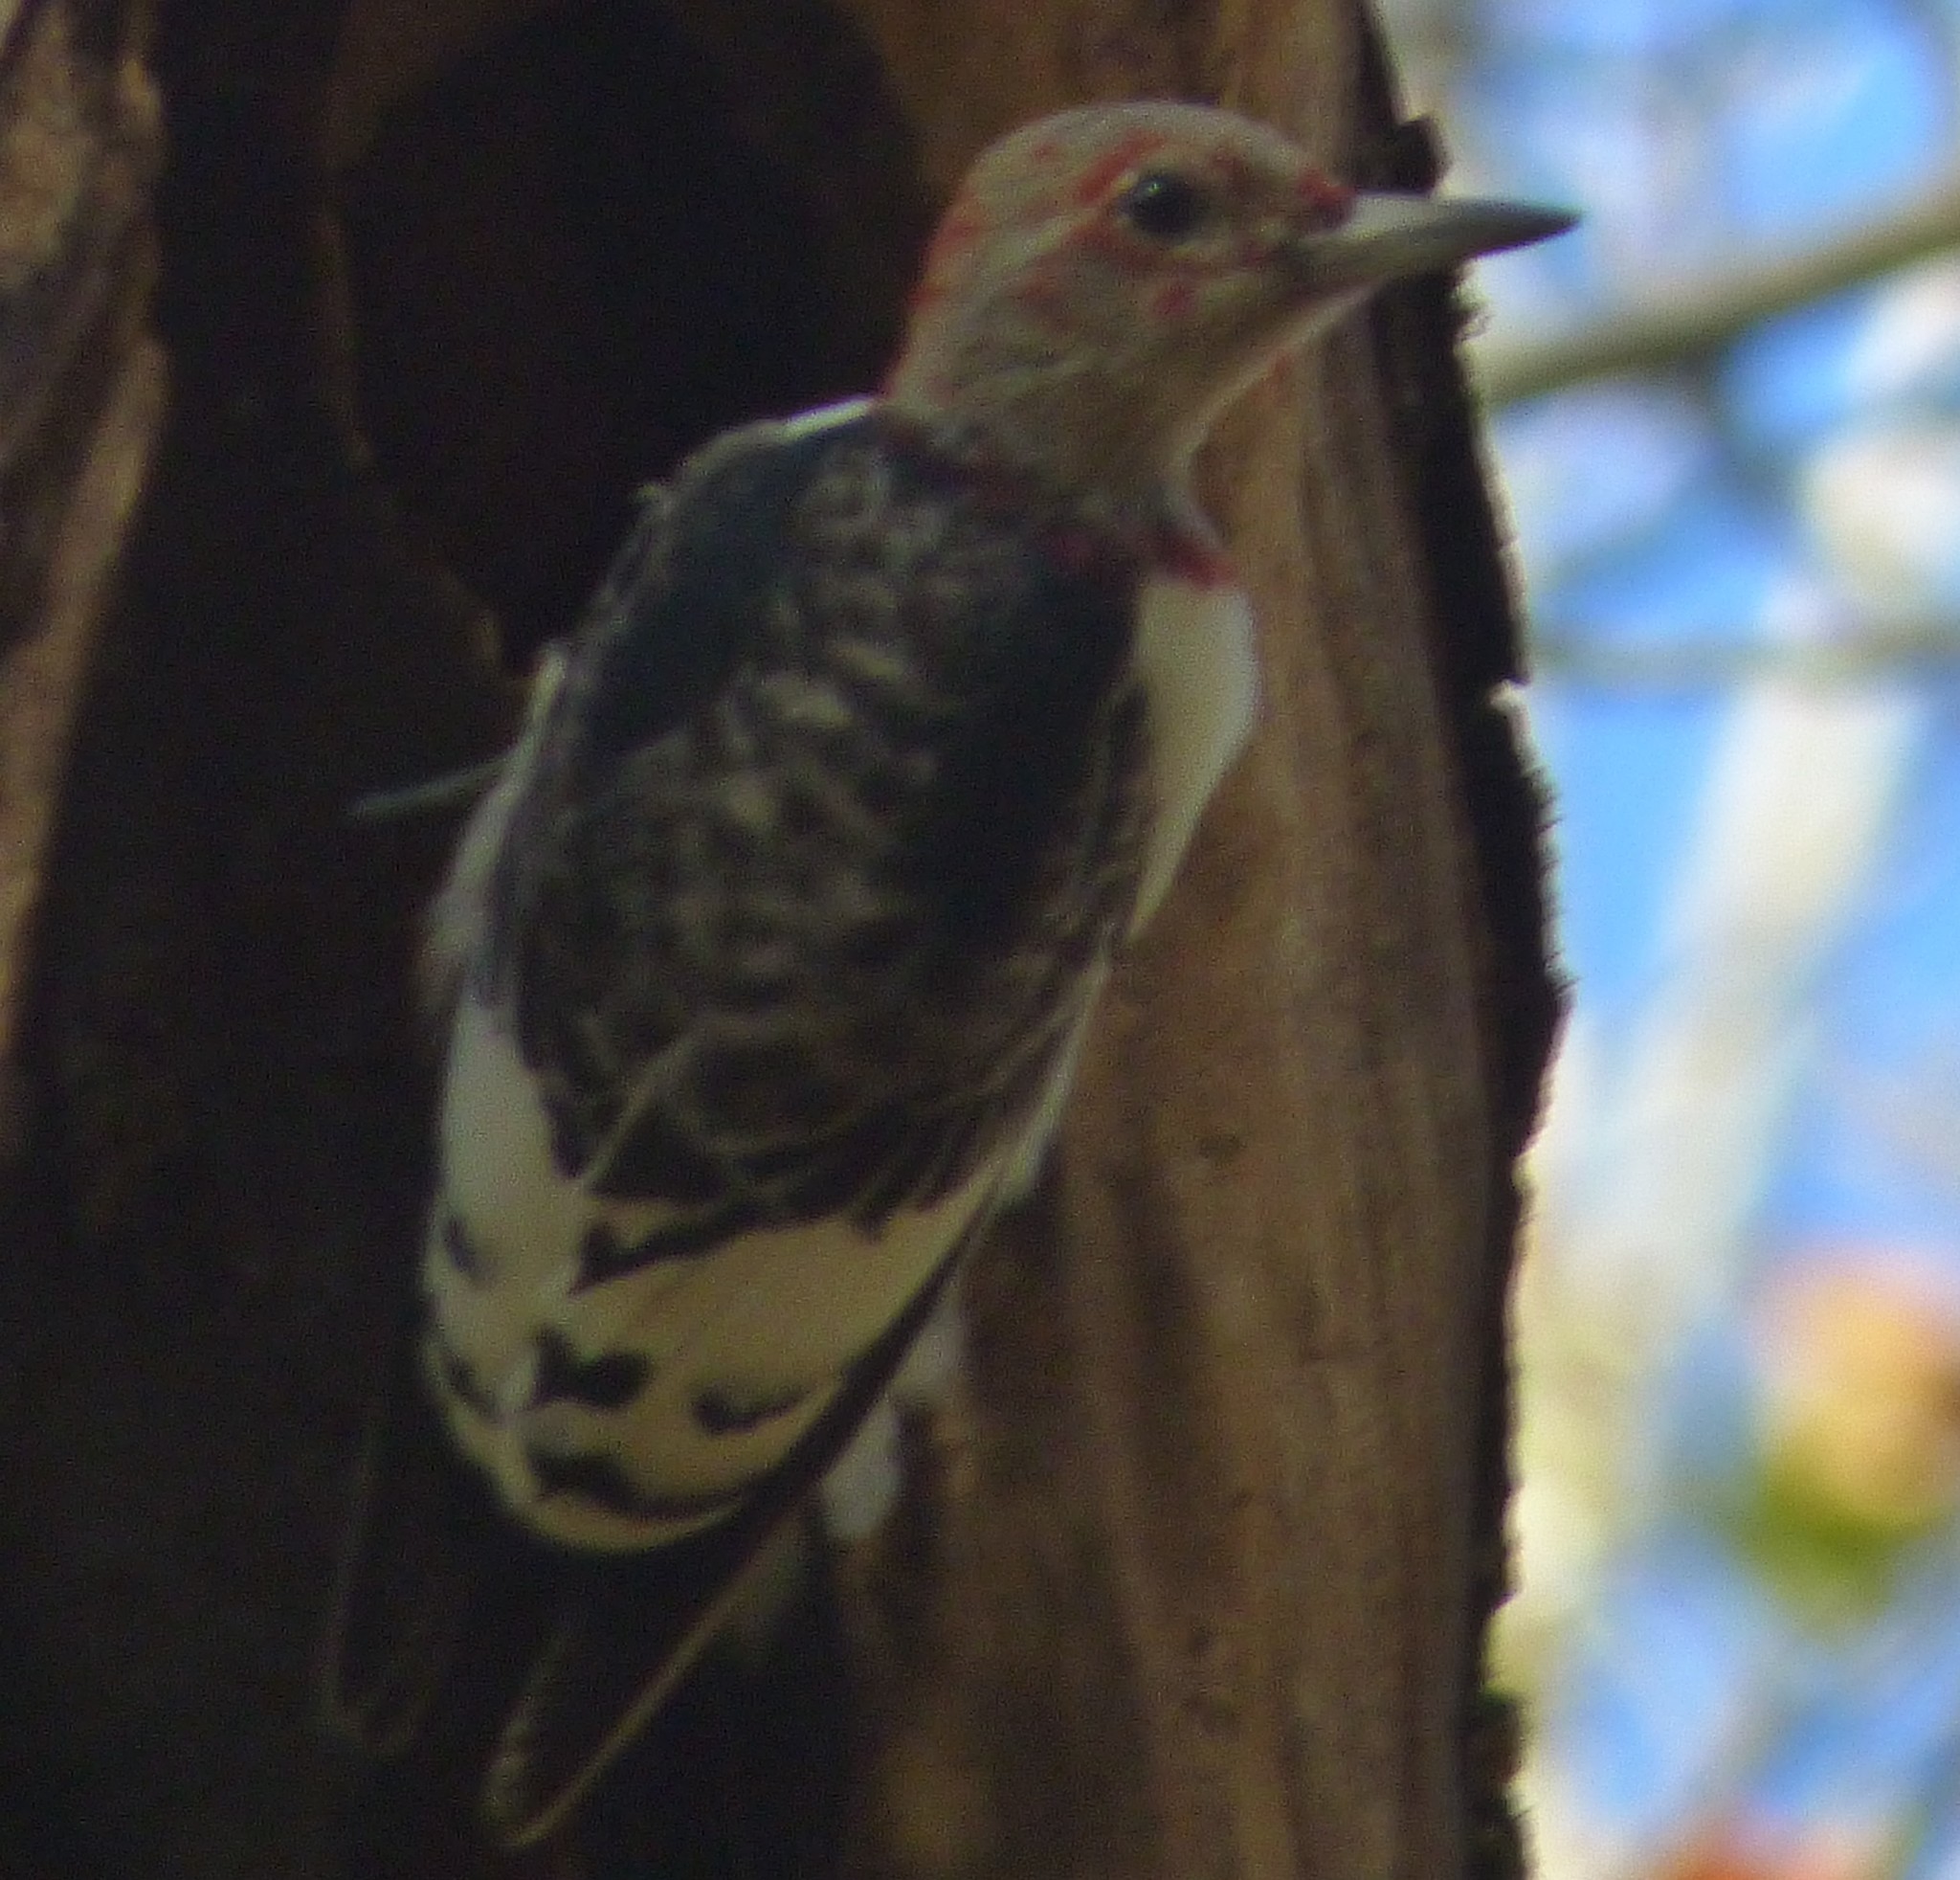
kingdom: Animalia
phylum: Chordata
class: Aves
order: Piciformes
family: Picidae
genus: Melanerpes
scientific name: Melanerpes erythrocephalus
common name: Red-headed woodpecker
